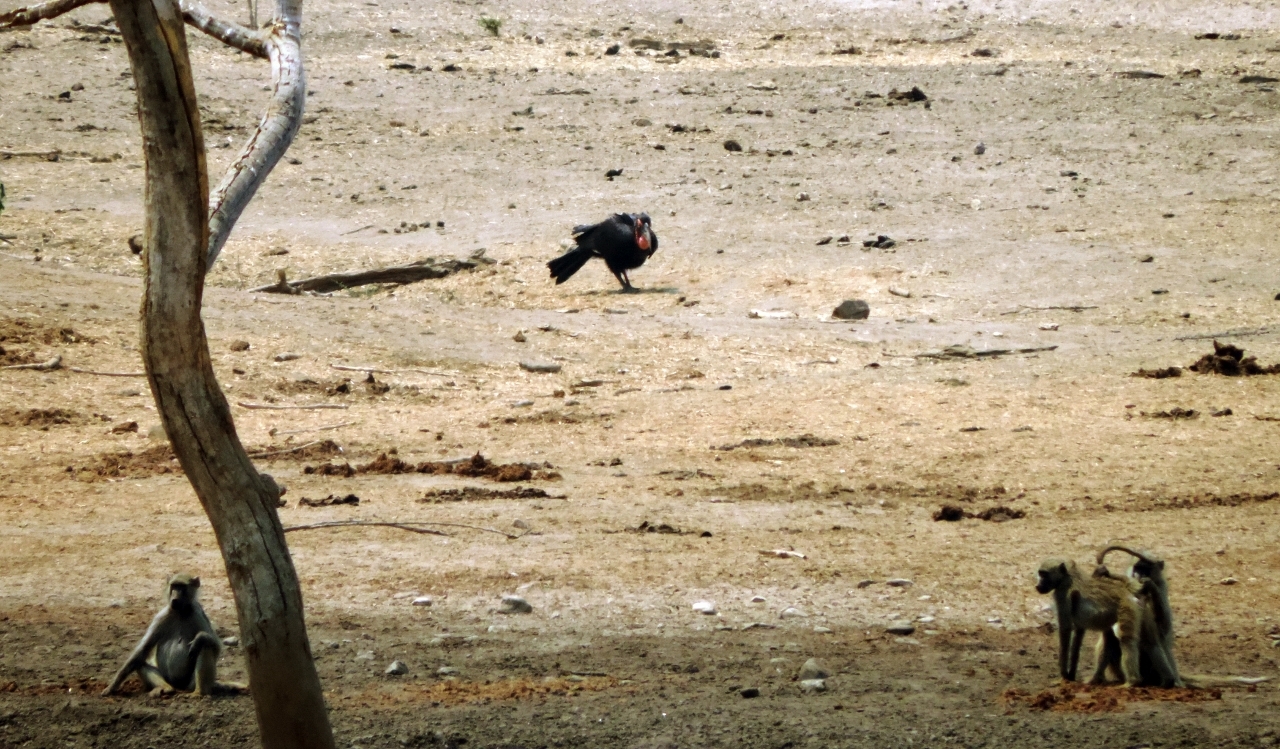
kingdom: Animalia
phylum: Chordata
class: Aves
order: Bucerotiformes
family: Bucorvidae
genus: Bucorvus
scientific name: Bucorvus leadbeateri
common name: Southern ground-hornbill
